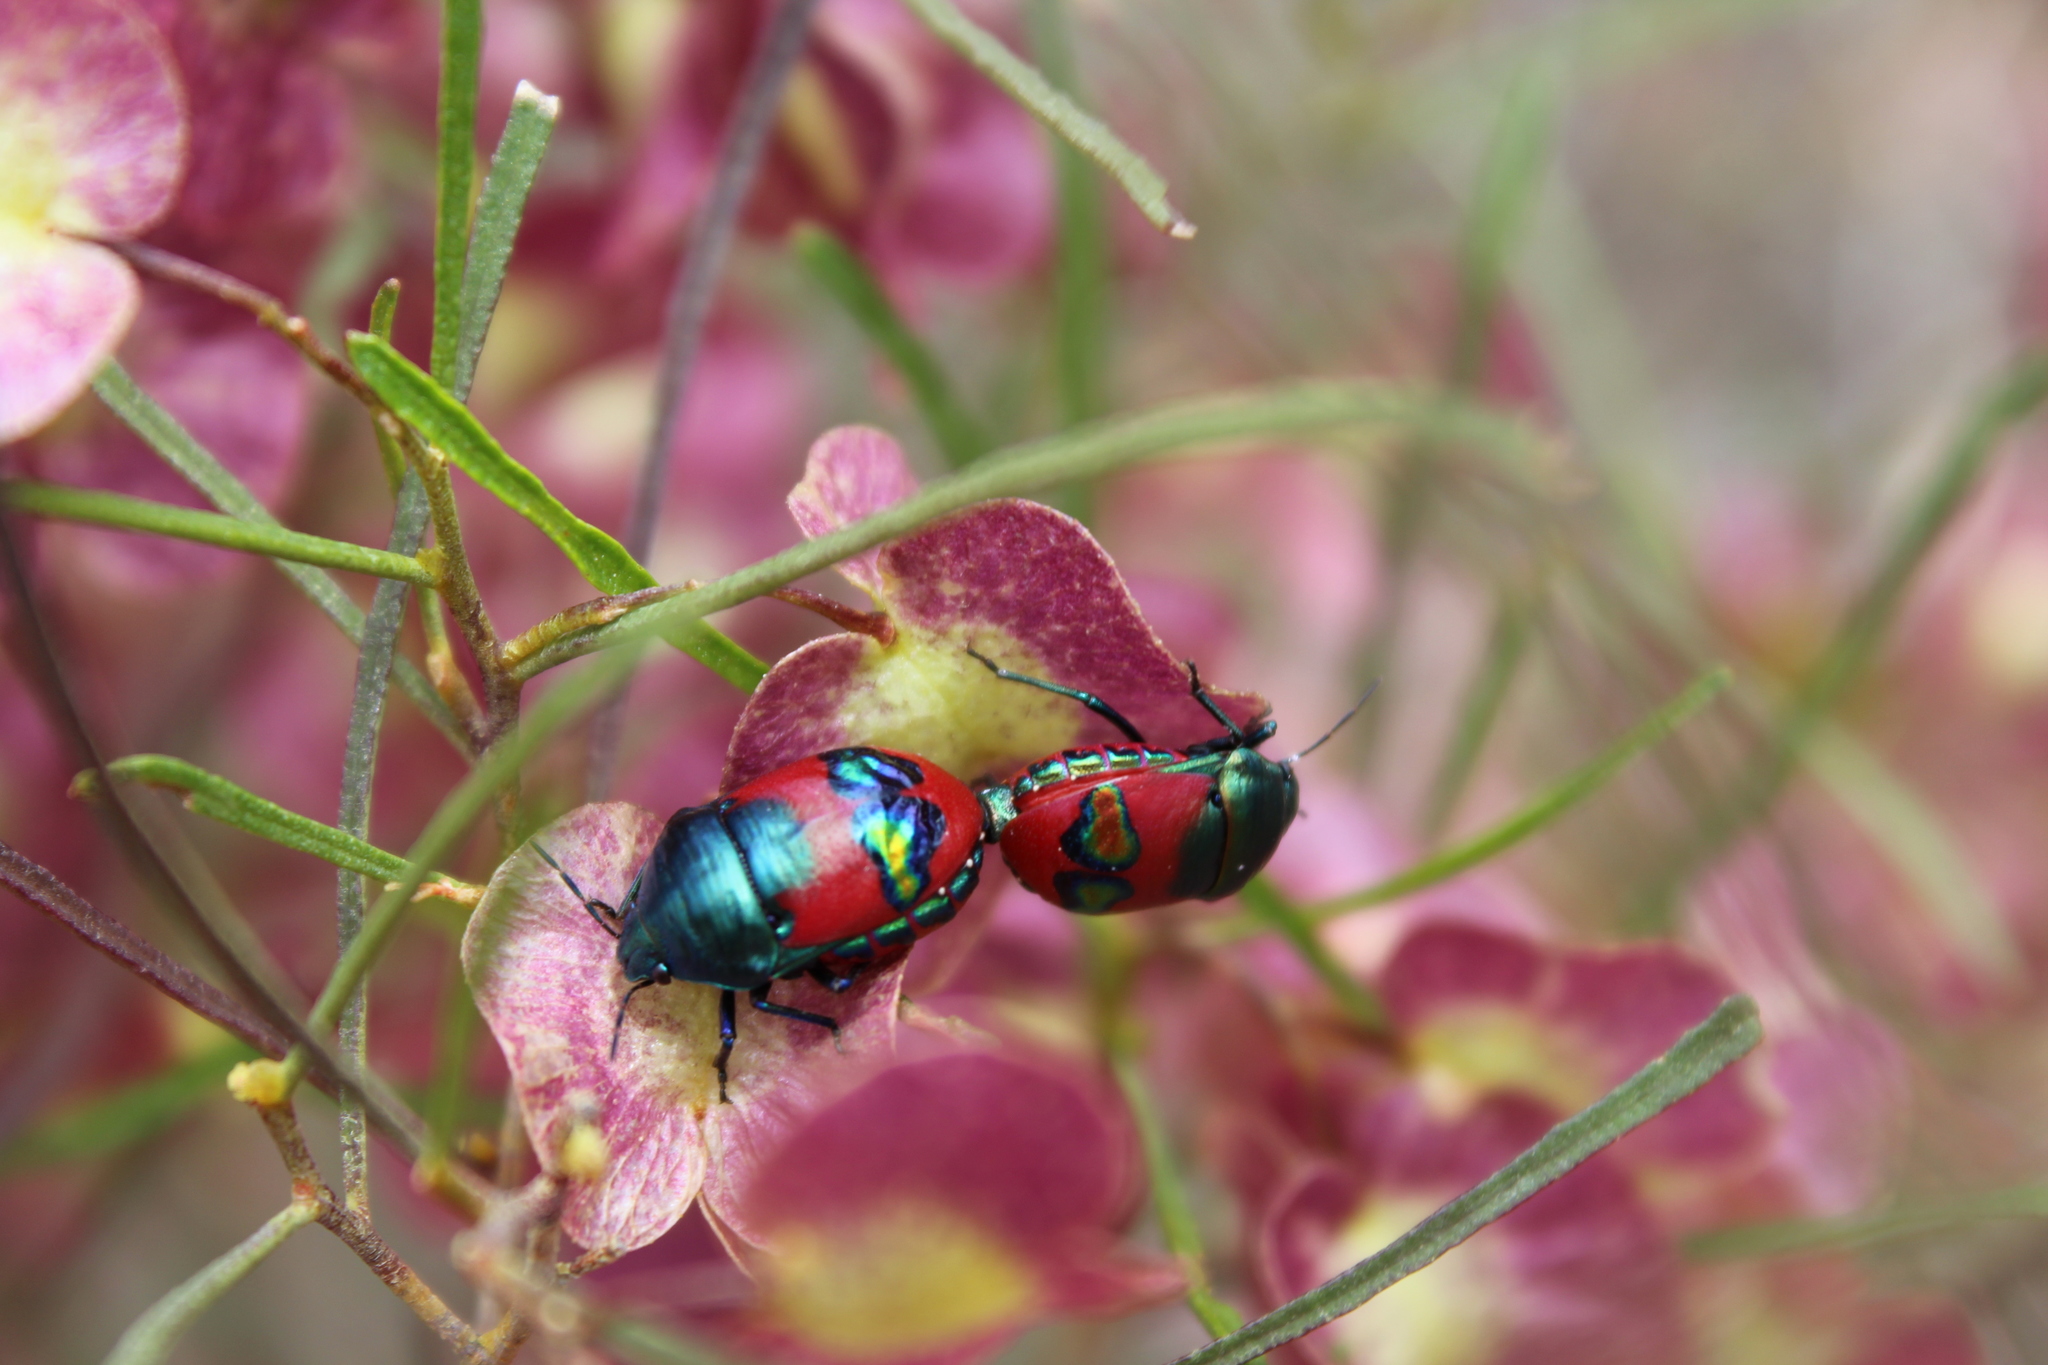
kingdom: Animalia
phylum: Arthropoda
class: Insecta
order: Hemiptera
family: Scutelleridae
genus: Choerocoris
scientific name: Choerocoris paganus
